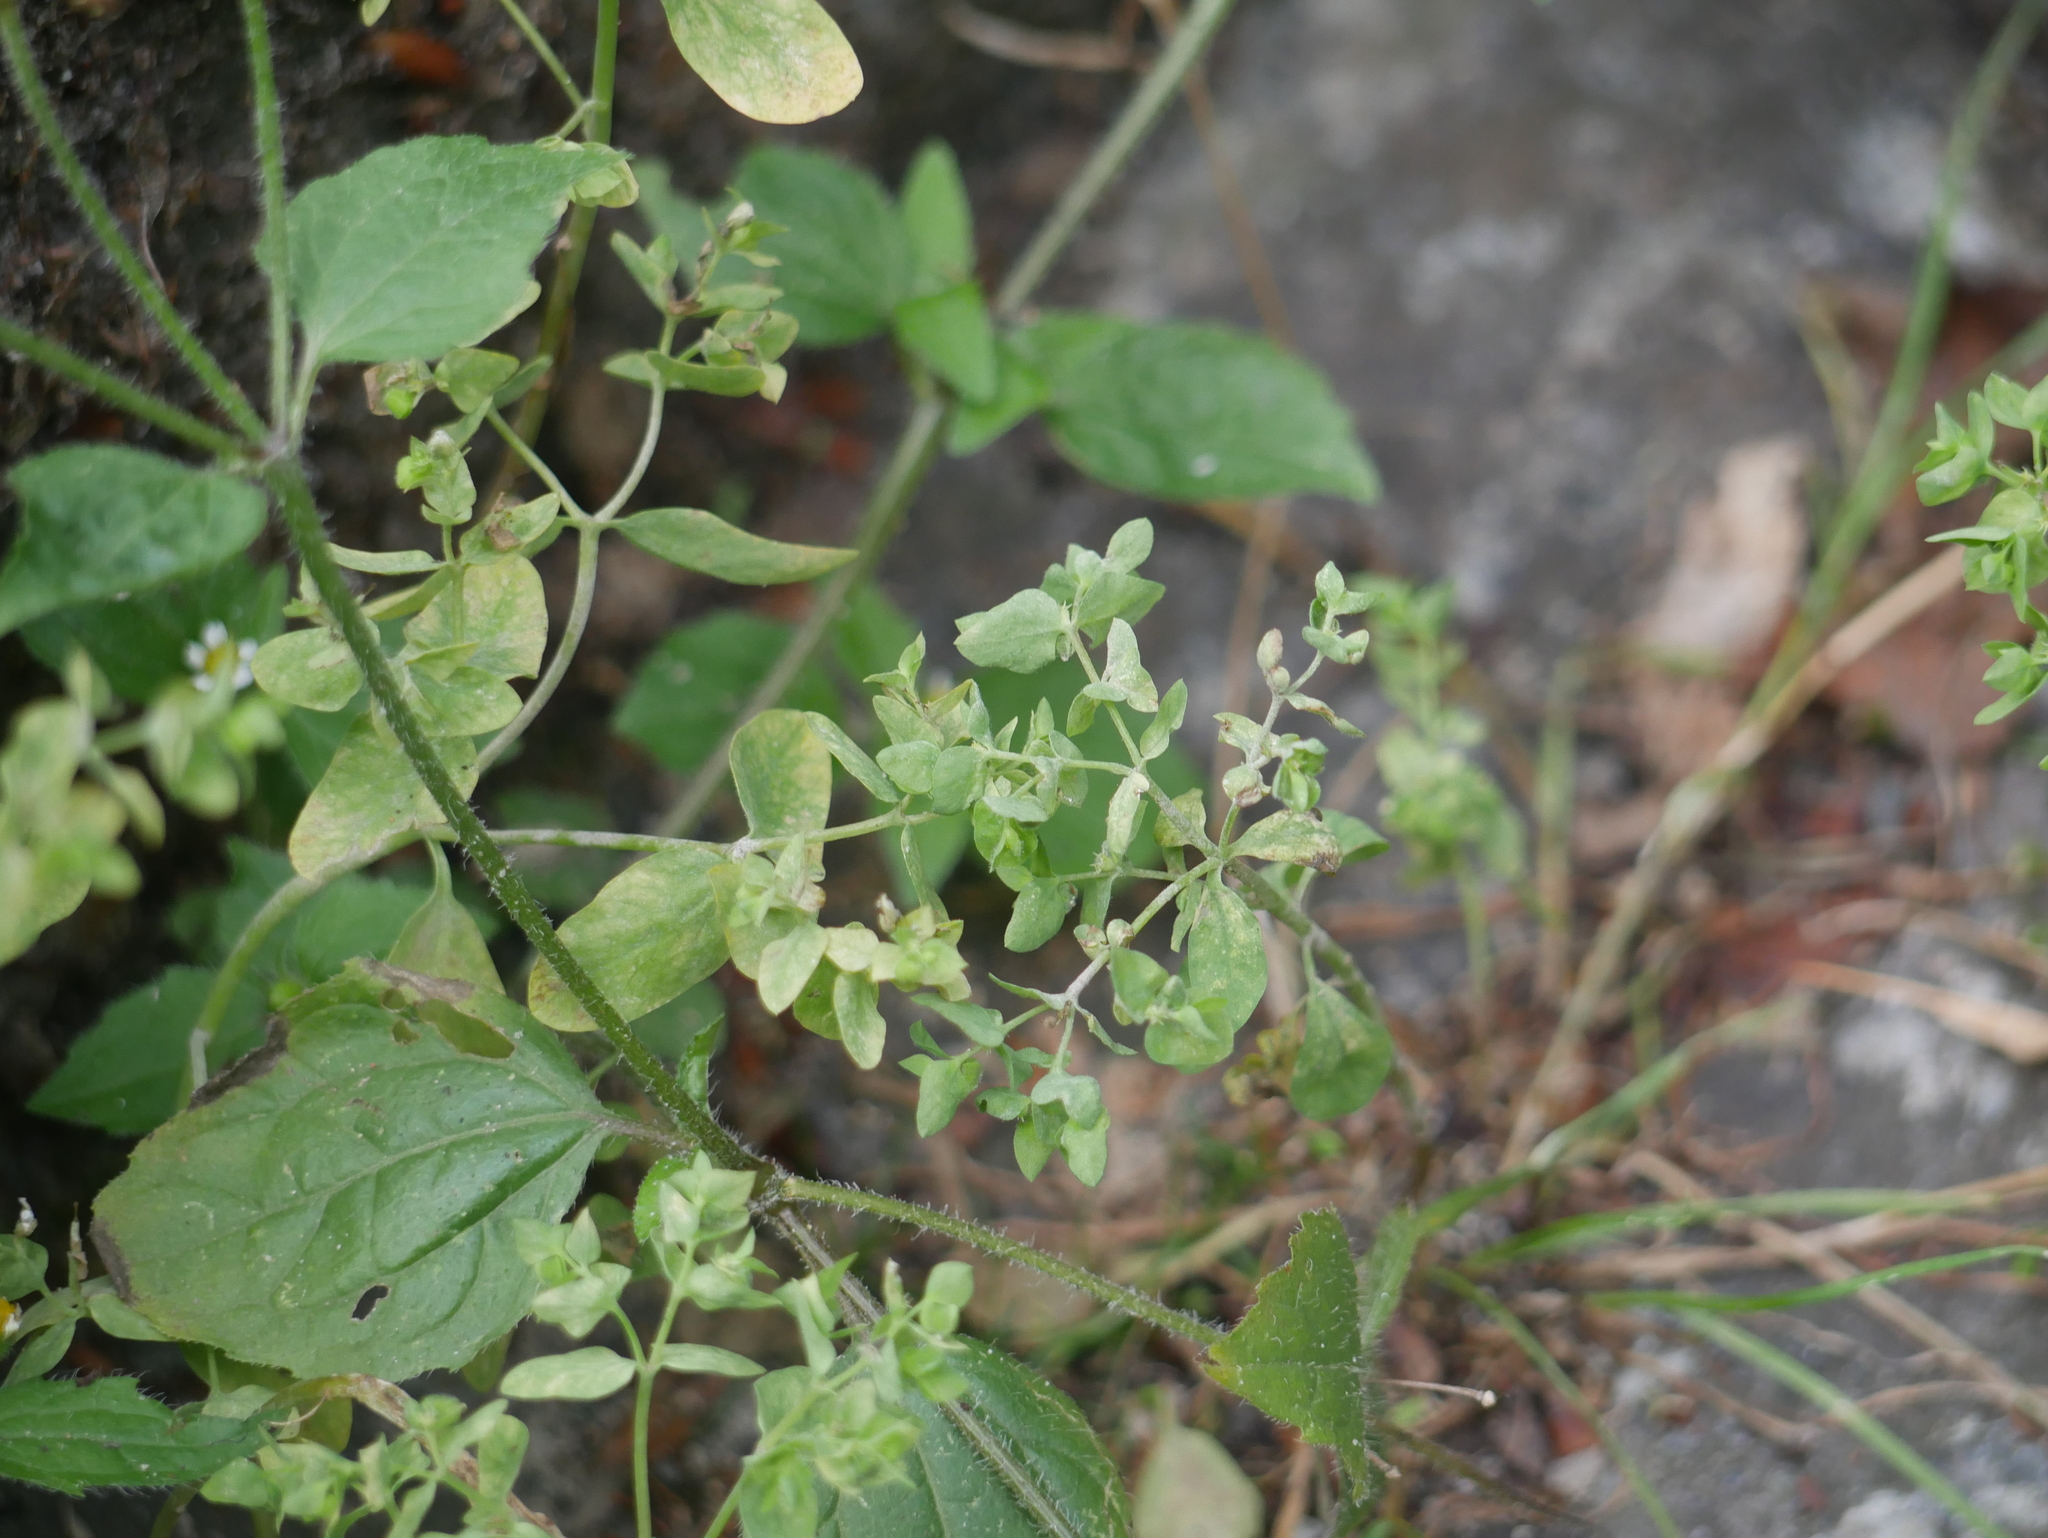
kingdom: Plantae
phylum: Tracheophyta
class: Magnoliopsida
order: Malpighiales
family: Euphorbiaceae
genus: Euphorbia
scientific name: Euphorbia peplus
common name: Petty spurge
